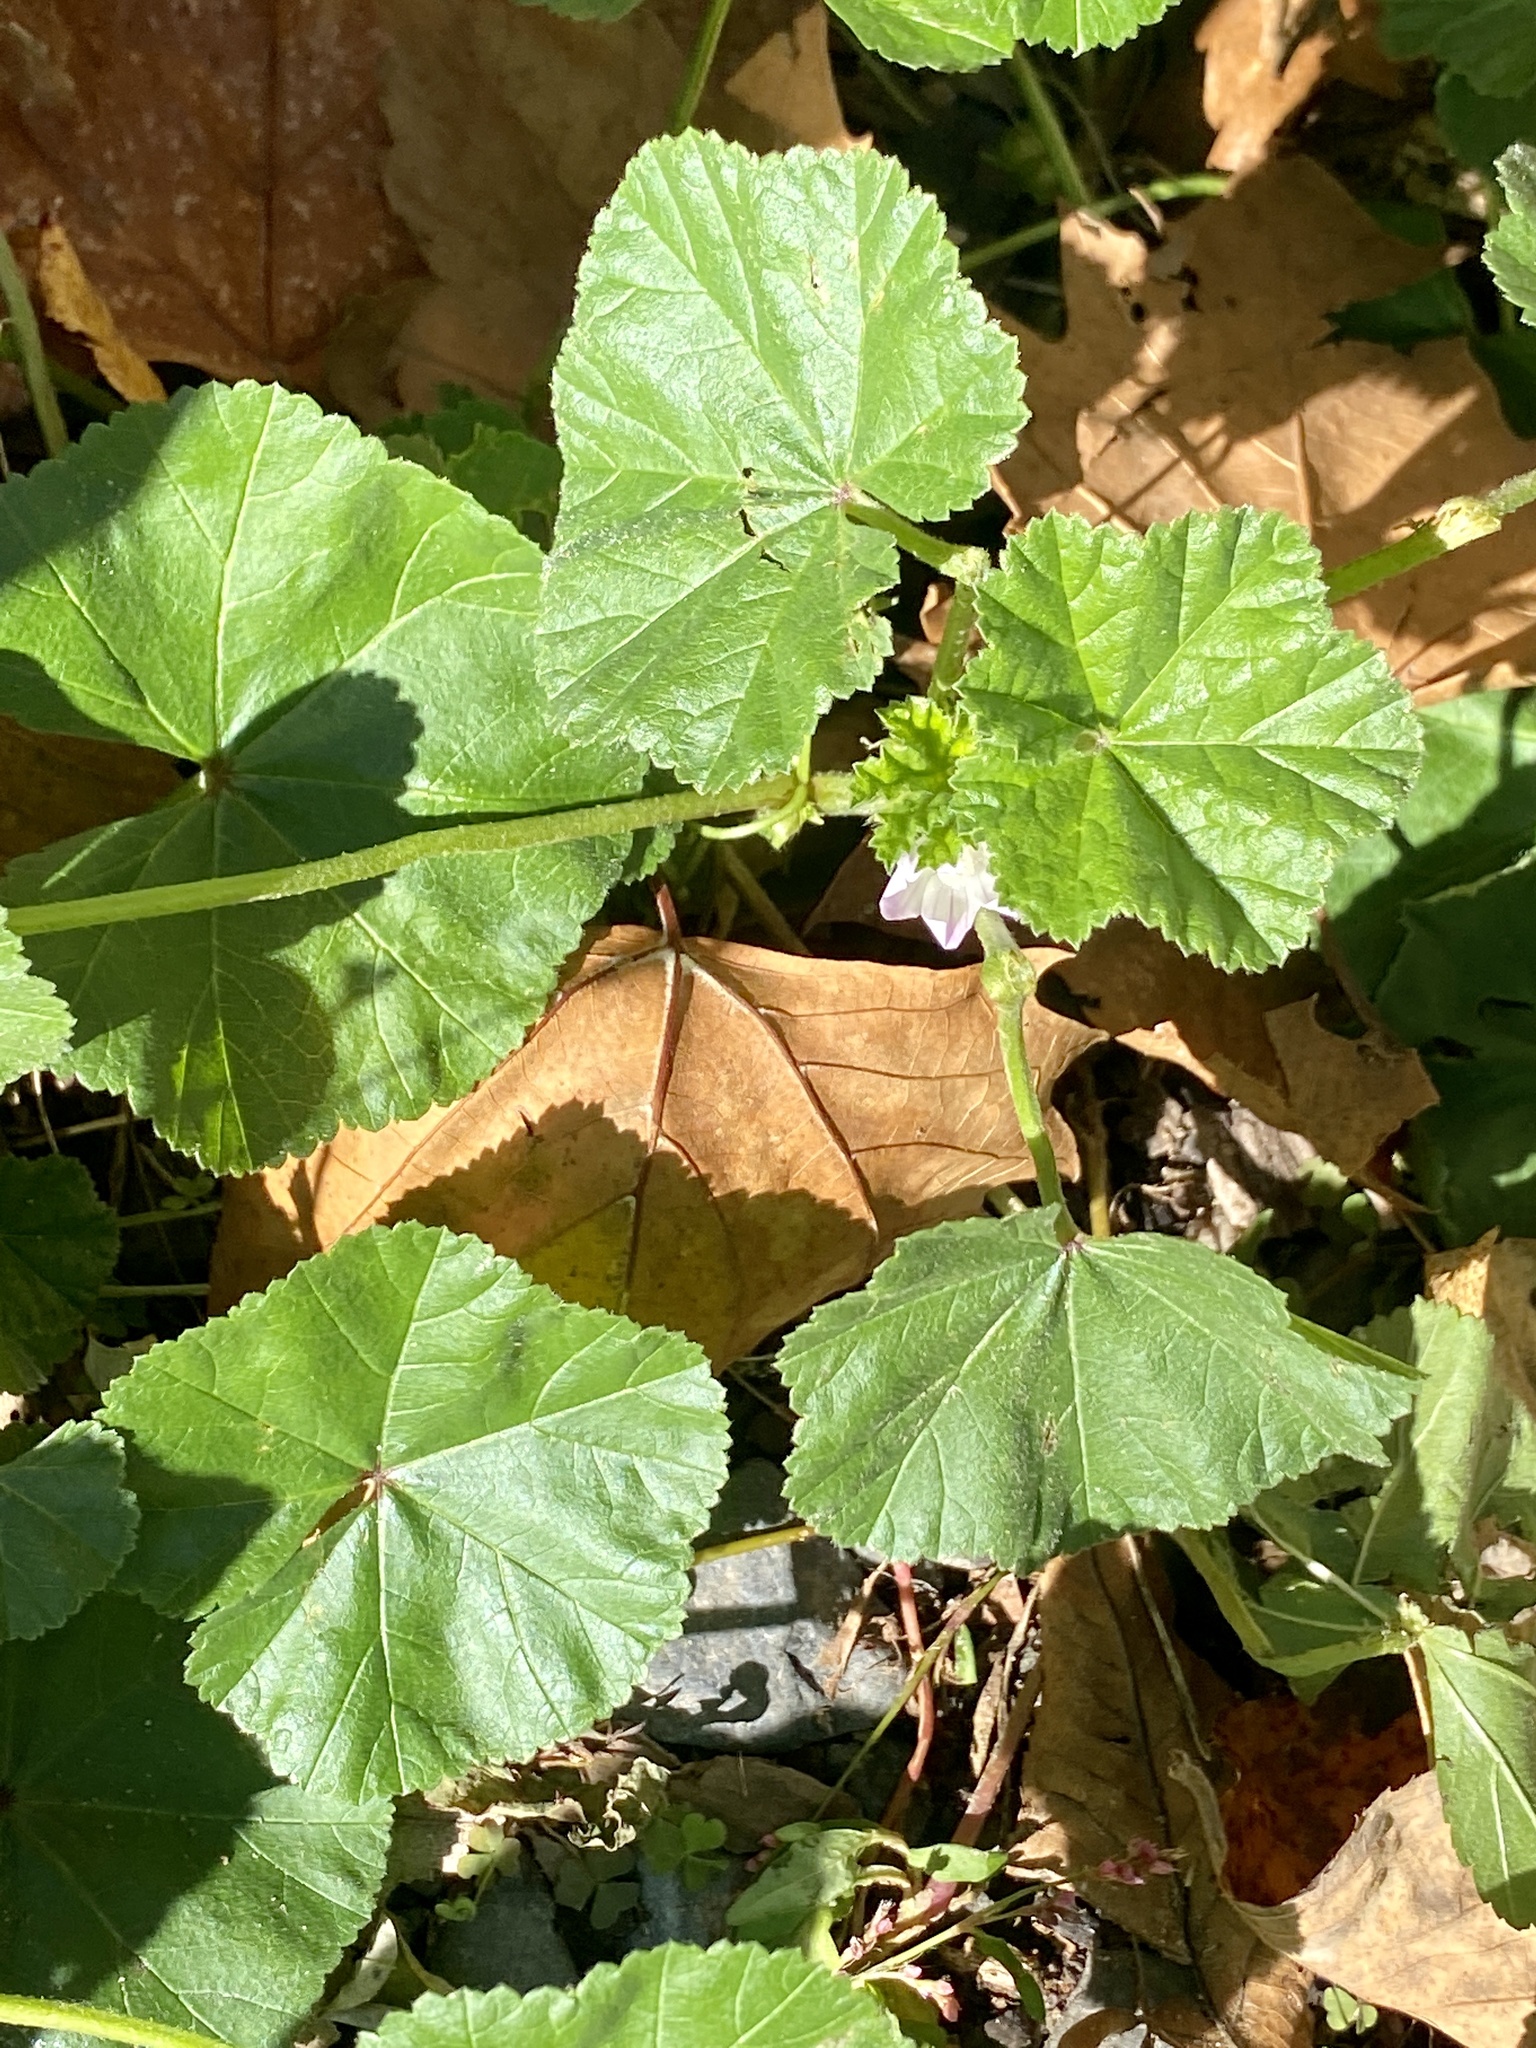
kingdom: Plantae
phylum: Tracheophyta
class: Magnoliopsida
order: Malvales
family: Malvaceae
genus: Malva
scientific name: Malva neglecta
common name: Common mallow
